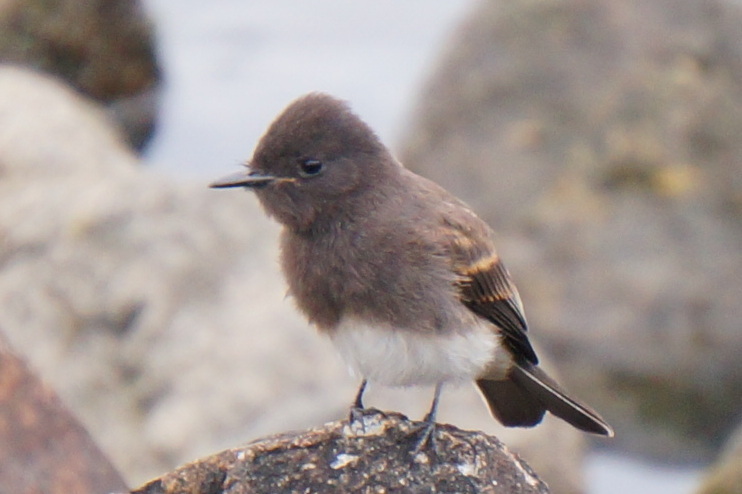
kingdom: Animalia
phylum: Chordata
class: Aves
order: Passeriformes
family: Tyrannidae
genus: Sayornis
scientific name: Sayornis nigricans
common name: Black phoebe
